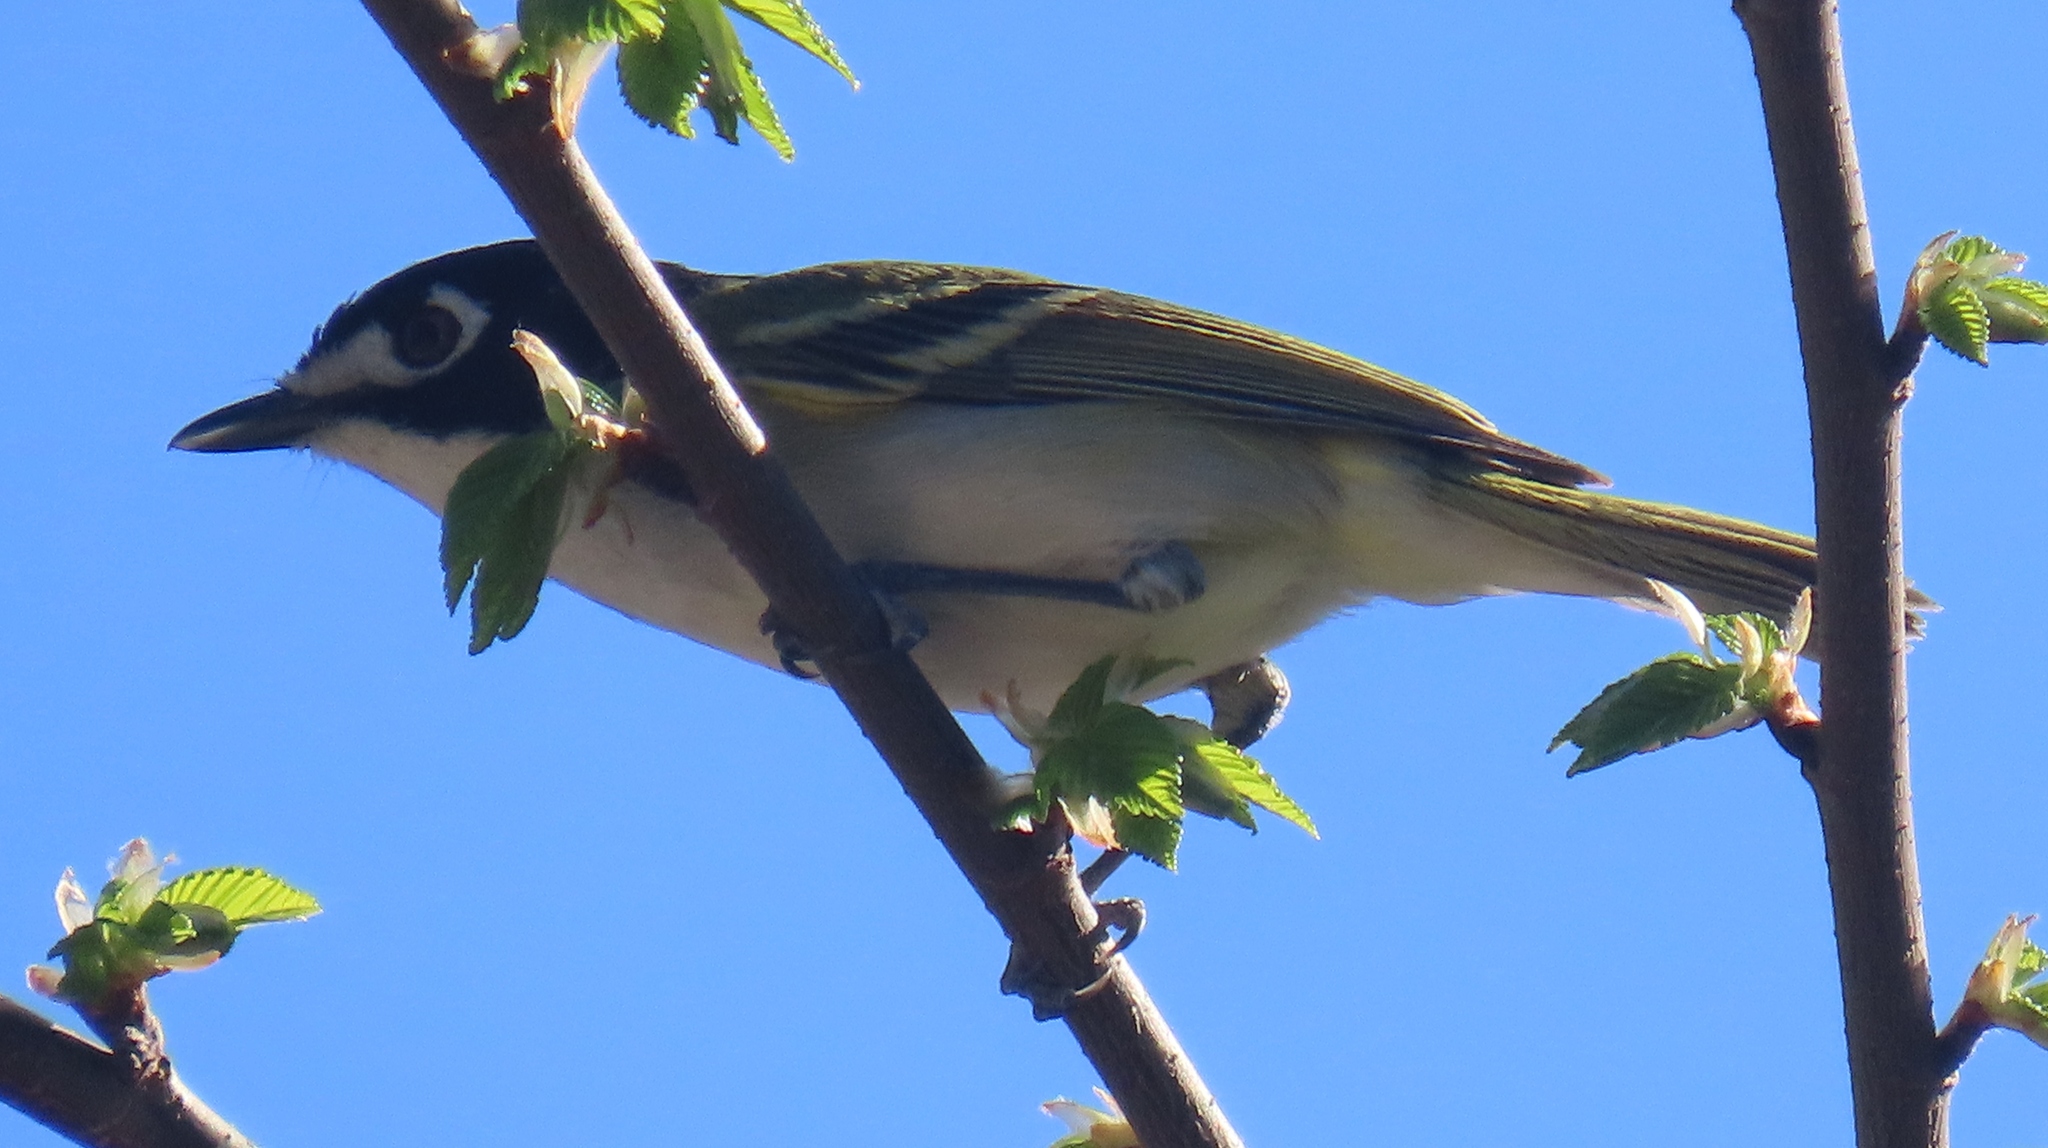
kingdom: Animalia
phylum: Chordata
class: Aves
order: Passeriformes
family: Vireonidae
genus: Vireo
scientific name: Vireo atricapilla
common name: Black-capped vireo
